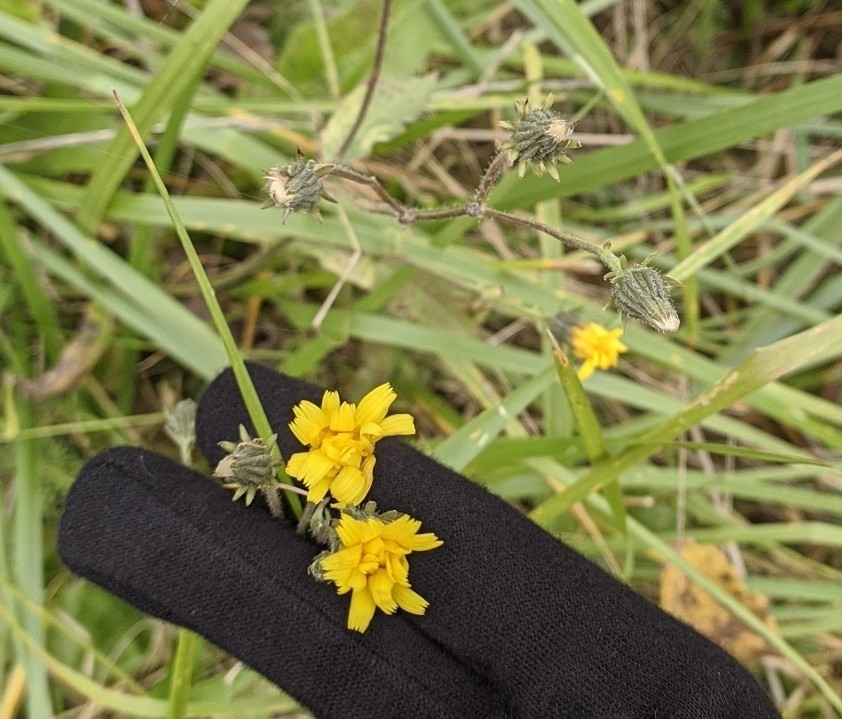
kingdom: Plantae
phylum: Tracheophyta
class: Magnoliopsida
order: Asterales
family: Asteraceae
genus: Picris
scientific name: Picris hieracioides
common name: Hawkweed oxtongue
